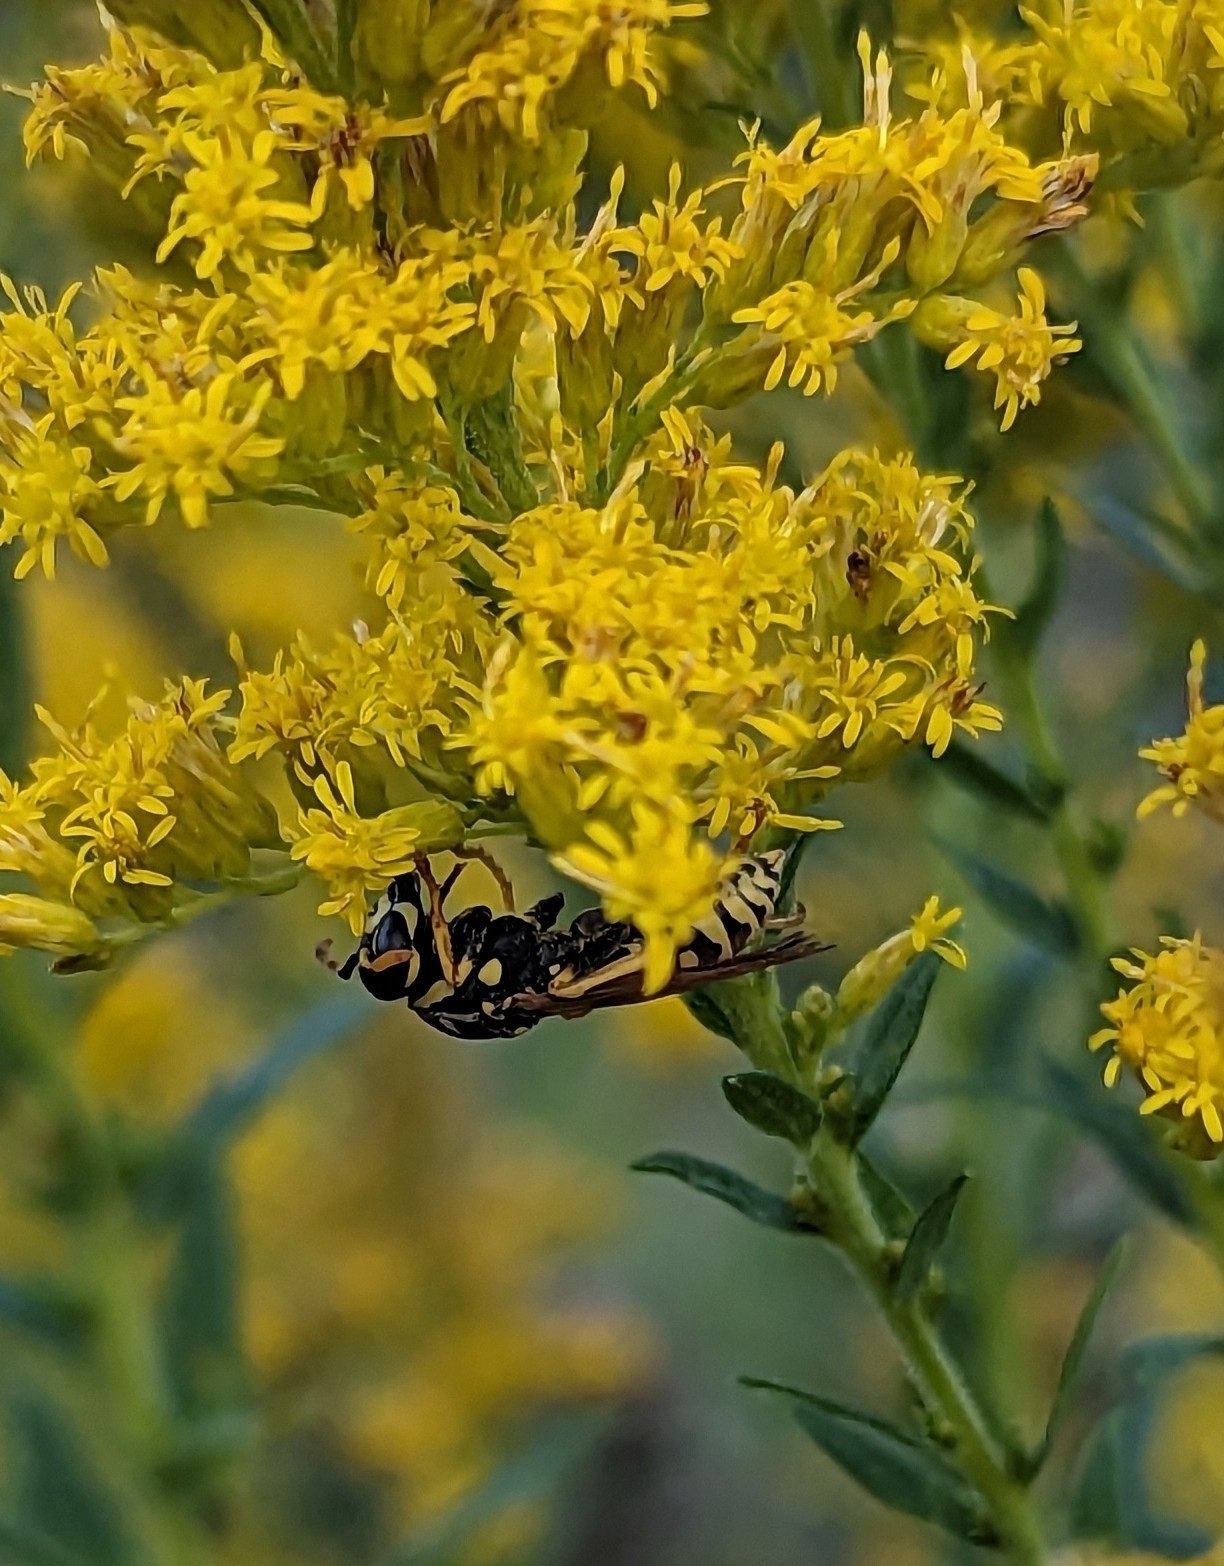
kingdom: Animalia
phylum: Arthropoda
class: Insecta
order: Hymenoptera
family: Eumenidae
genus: Polistes
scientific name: Polistes dominula
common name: Paper wasp
